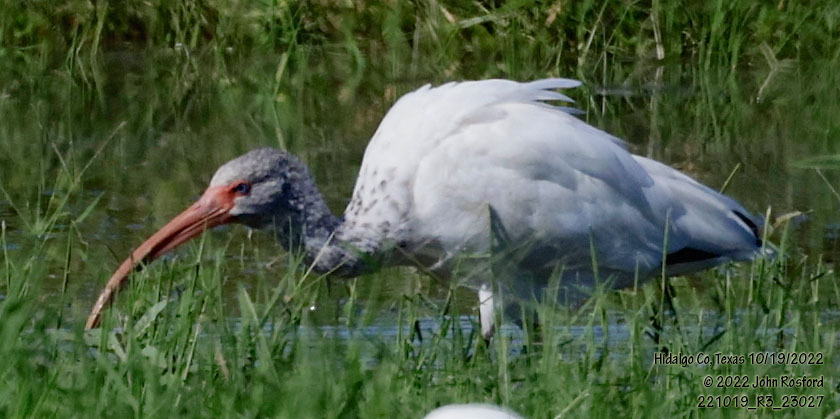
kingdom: Animalia
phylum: Chordata
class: Aves
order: Pelecaniformes
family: Threskiornithidae
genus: Eudocimus
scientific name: Eudocimus albus
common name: White ibis
